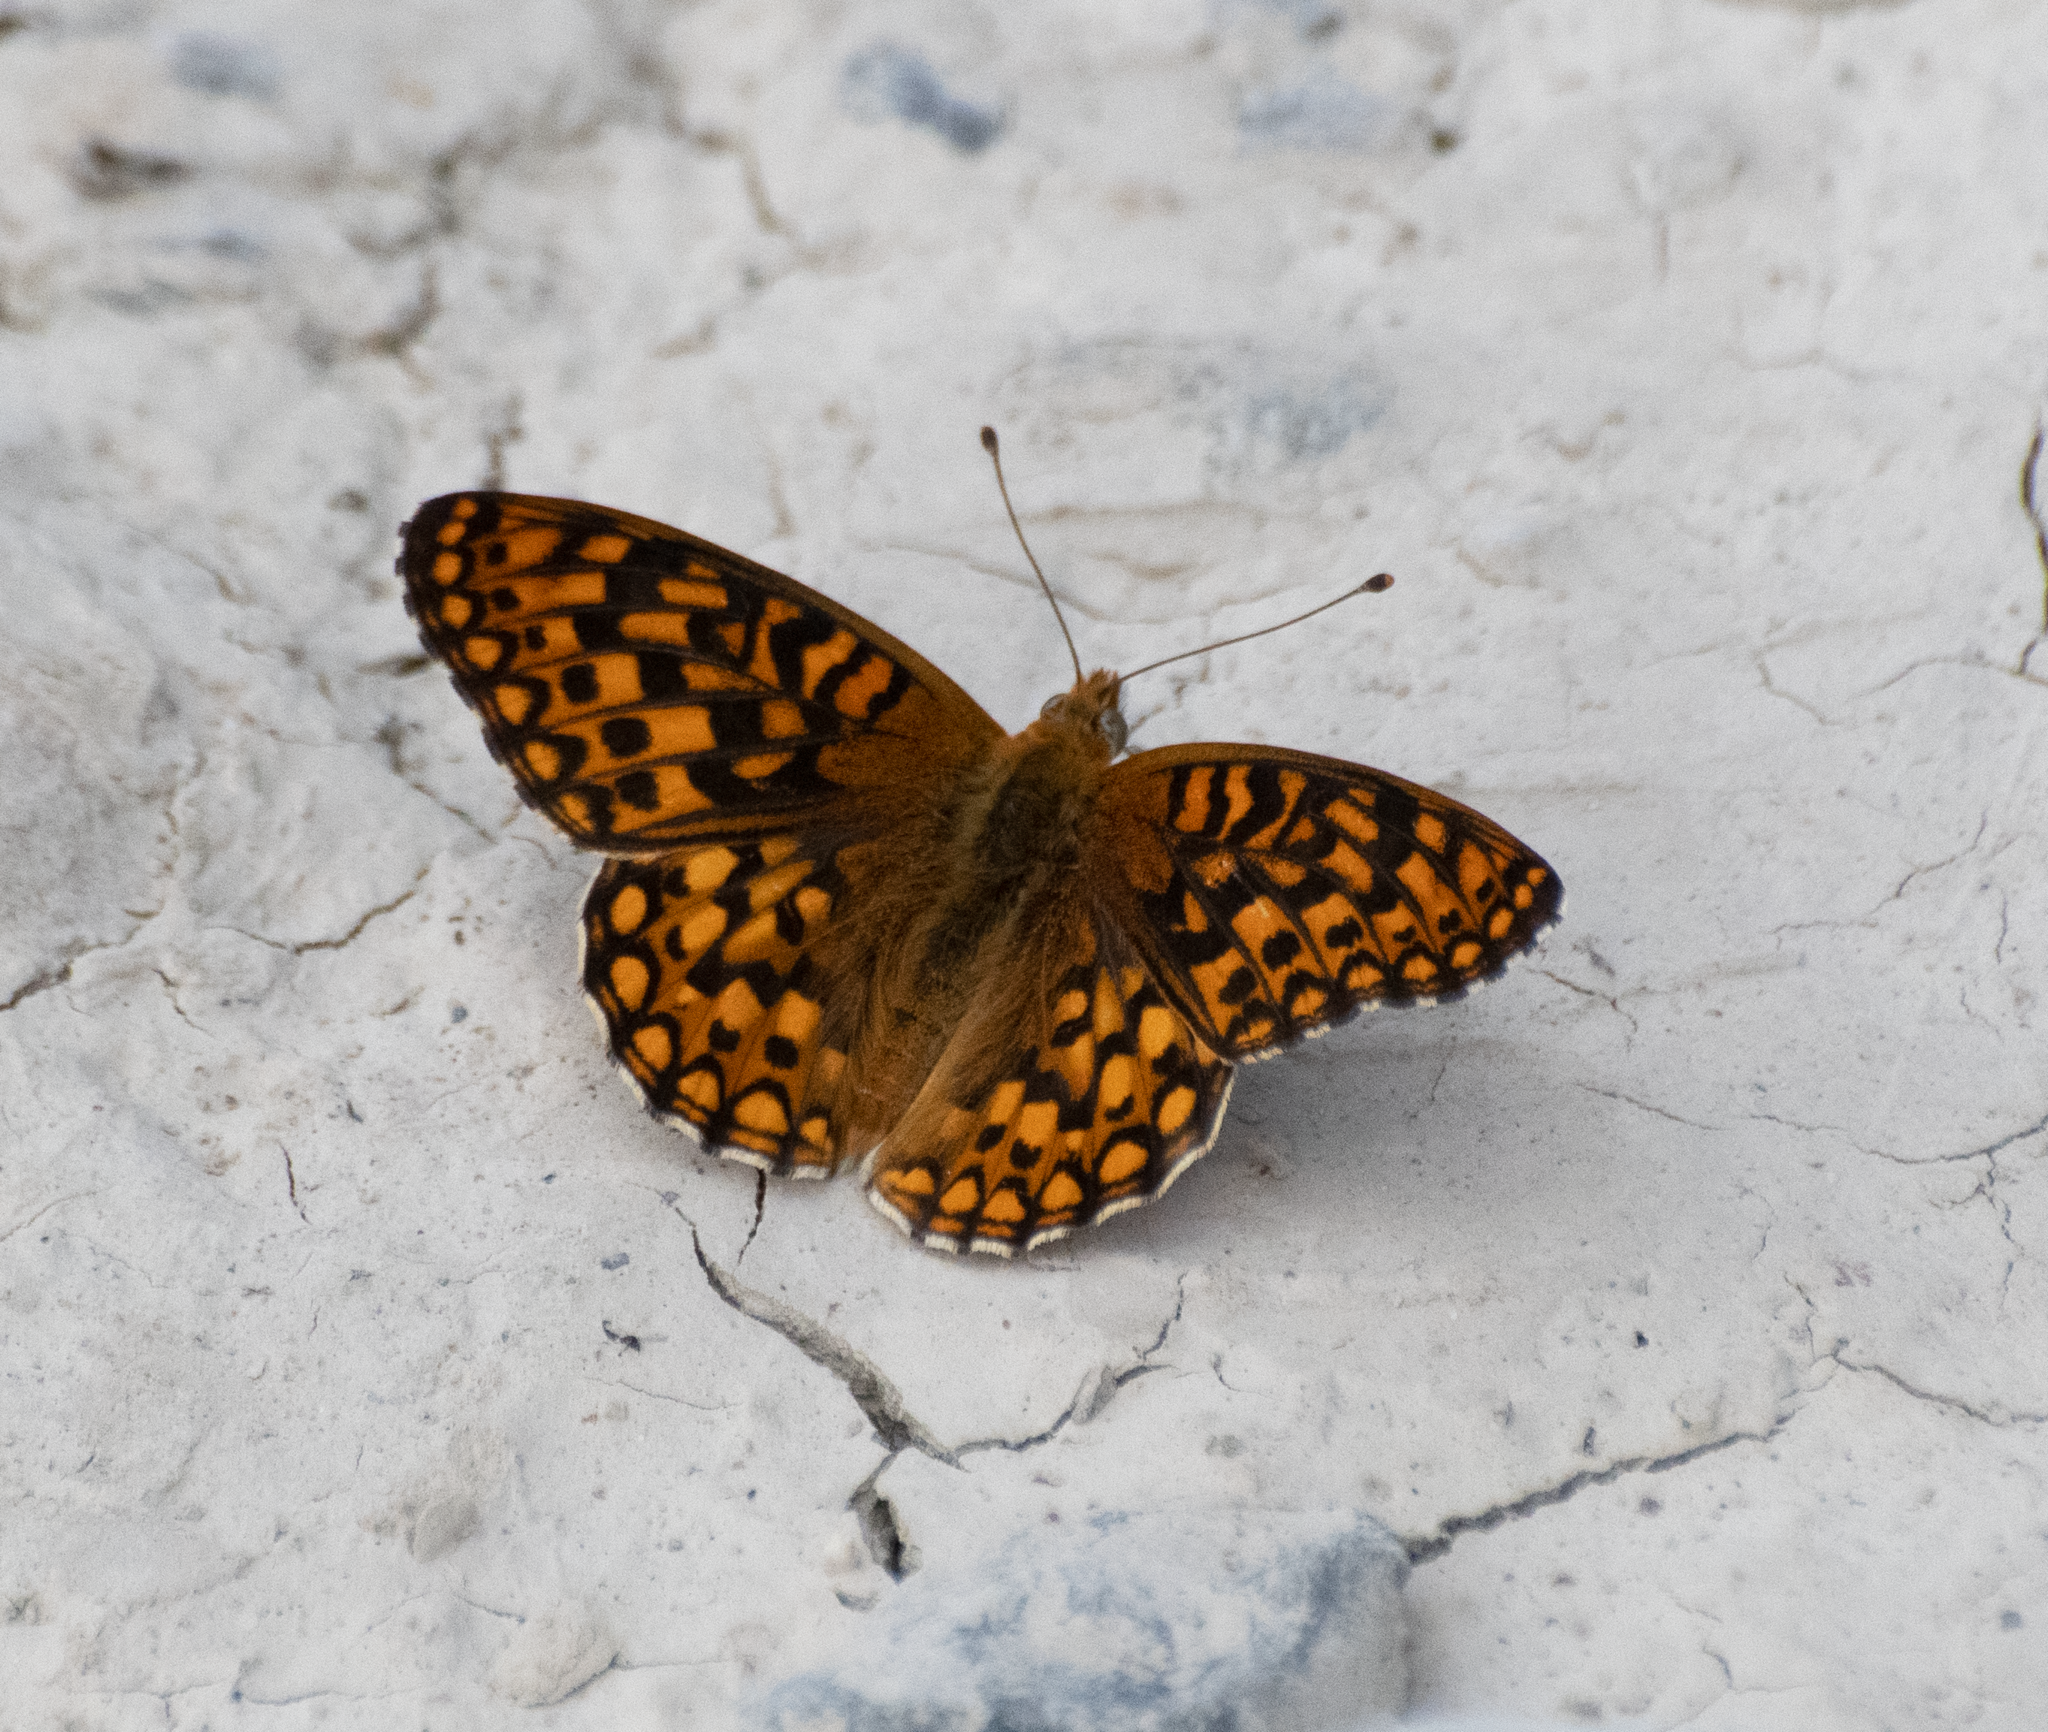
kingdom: Animalia
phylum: Arthropoda
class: Insecta
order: Lepidoptera
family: Nymphalidae
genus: Speyeria
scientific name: Speyeria callippe
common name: Callippe fritillary
